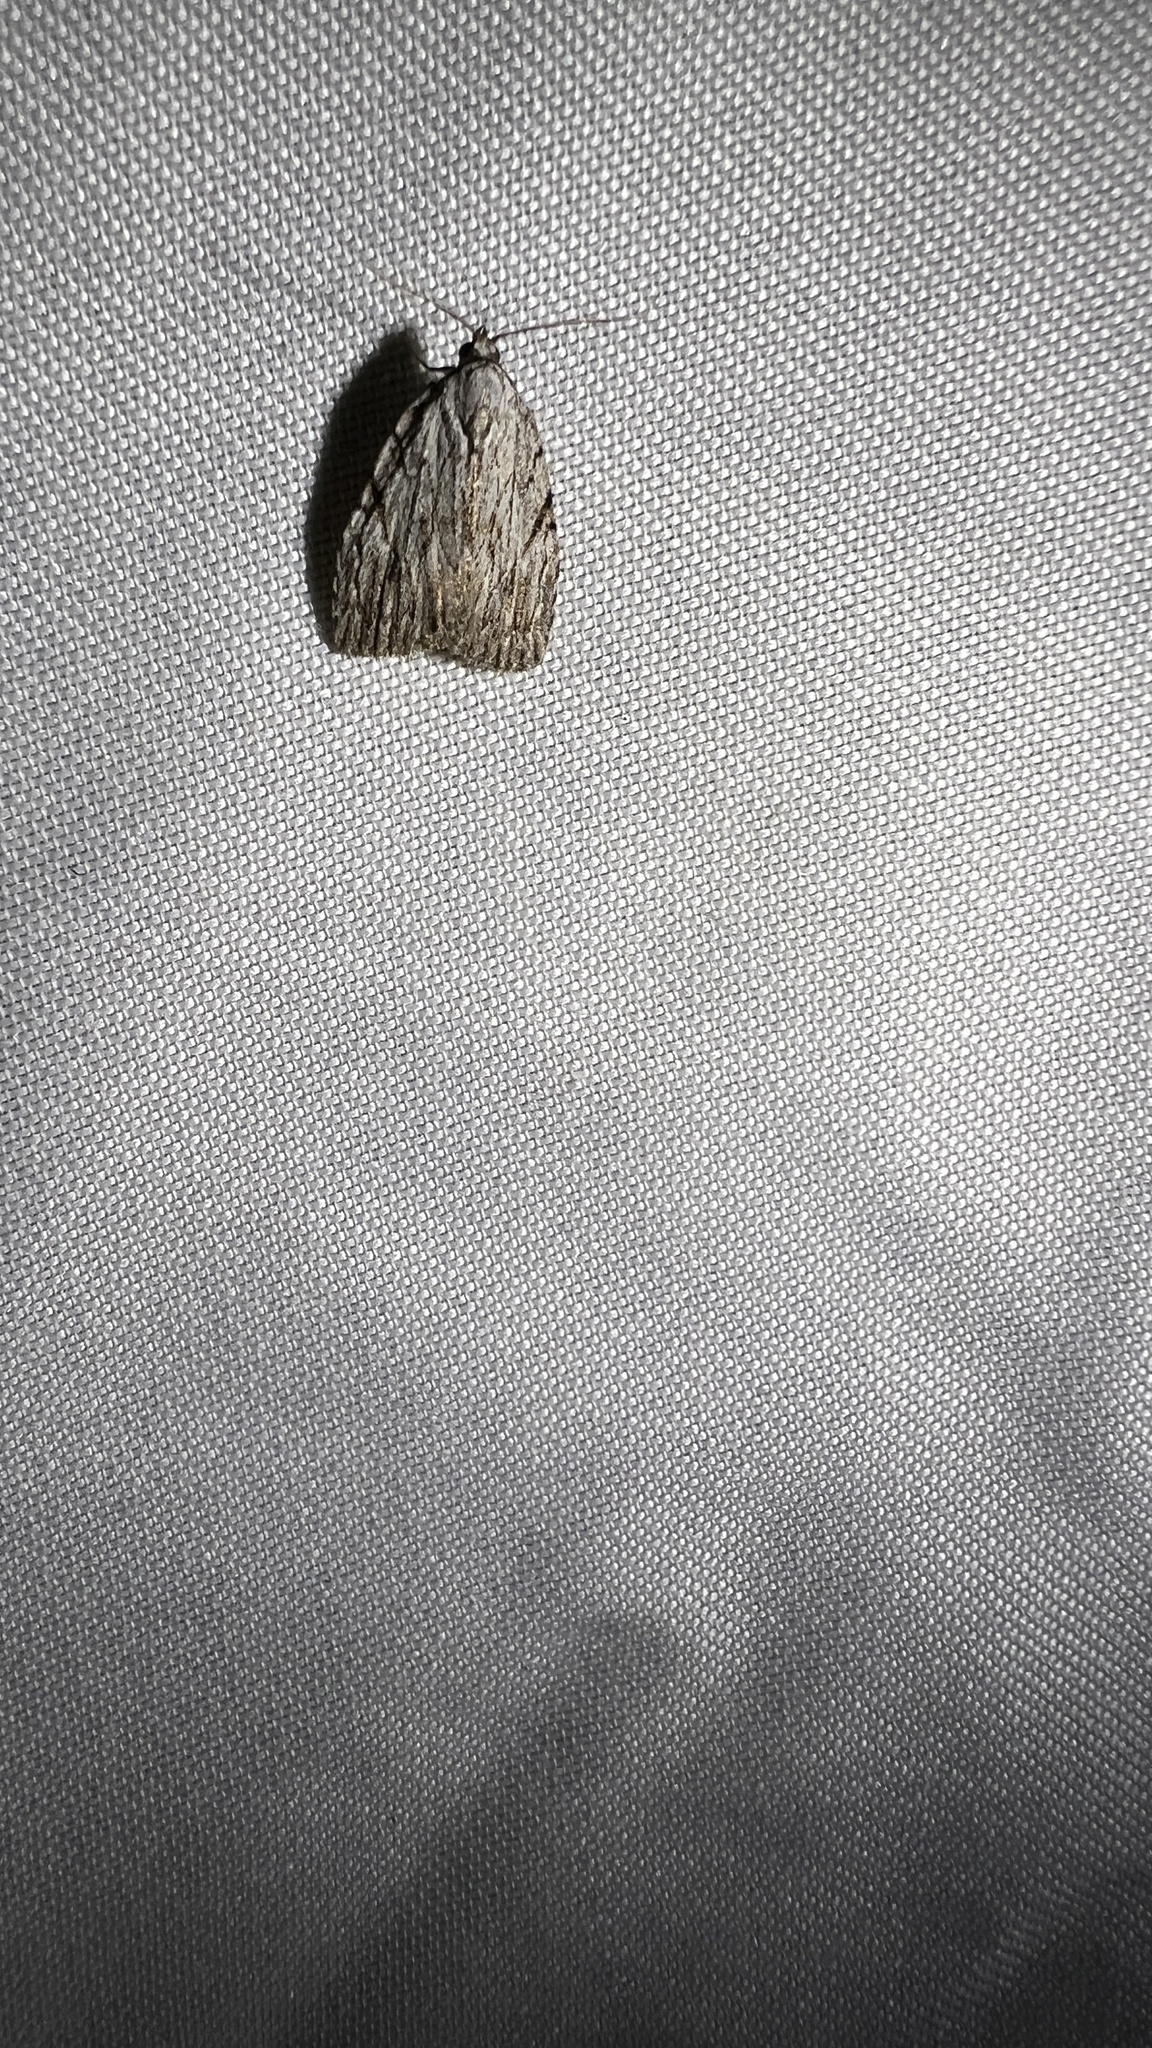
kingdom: Animalia
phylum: Arthropoda
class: Insecta
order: Lepidoptera
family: Noctuidae
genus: Balsa
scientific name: Balsa tristrigella
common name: Three-lined balsa moth
